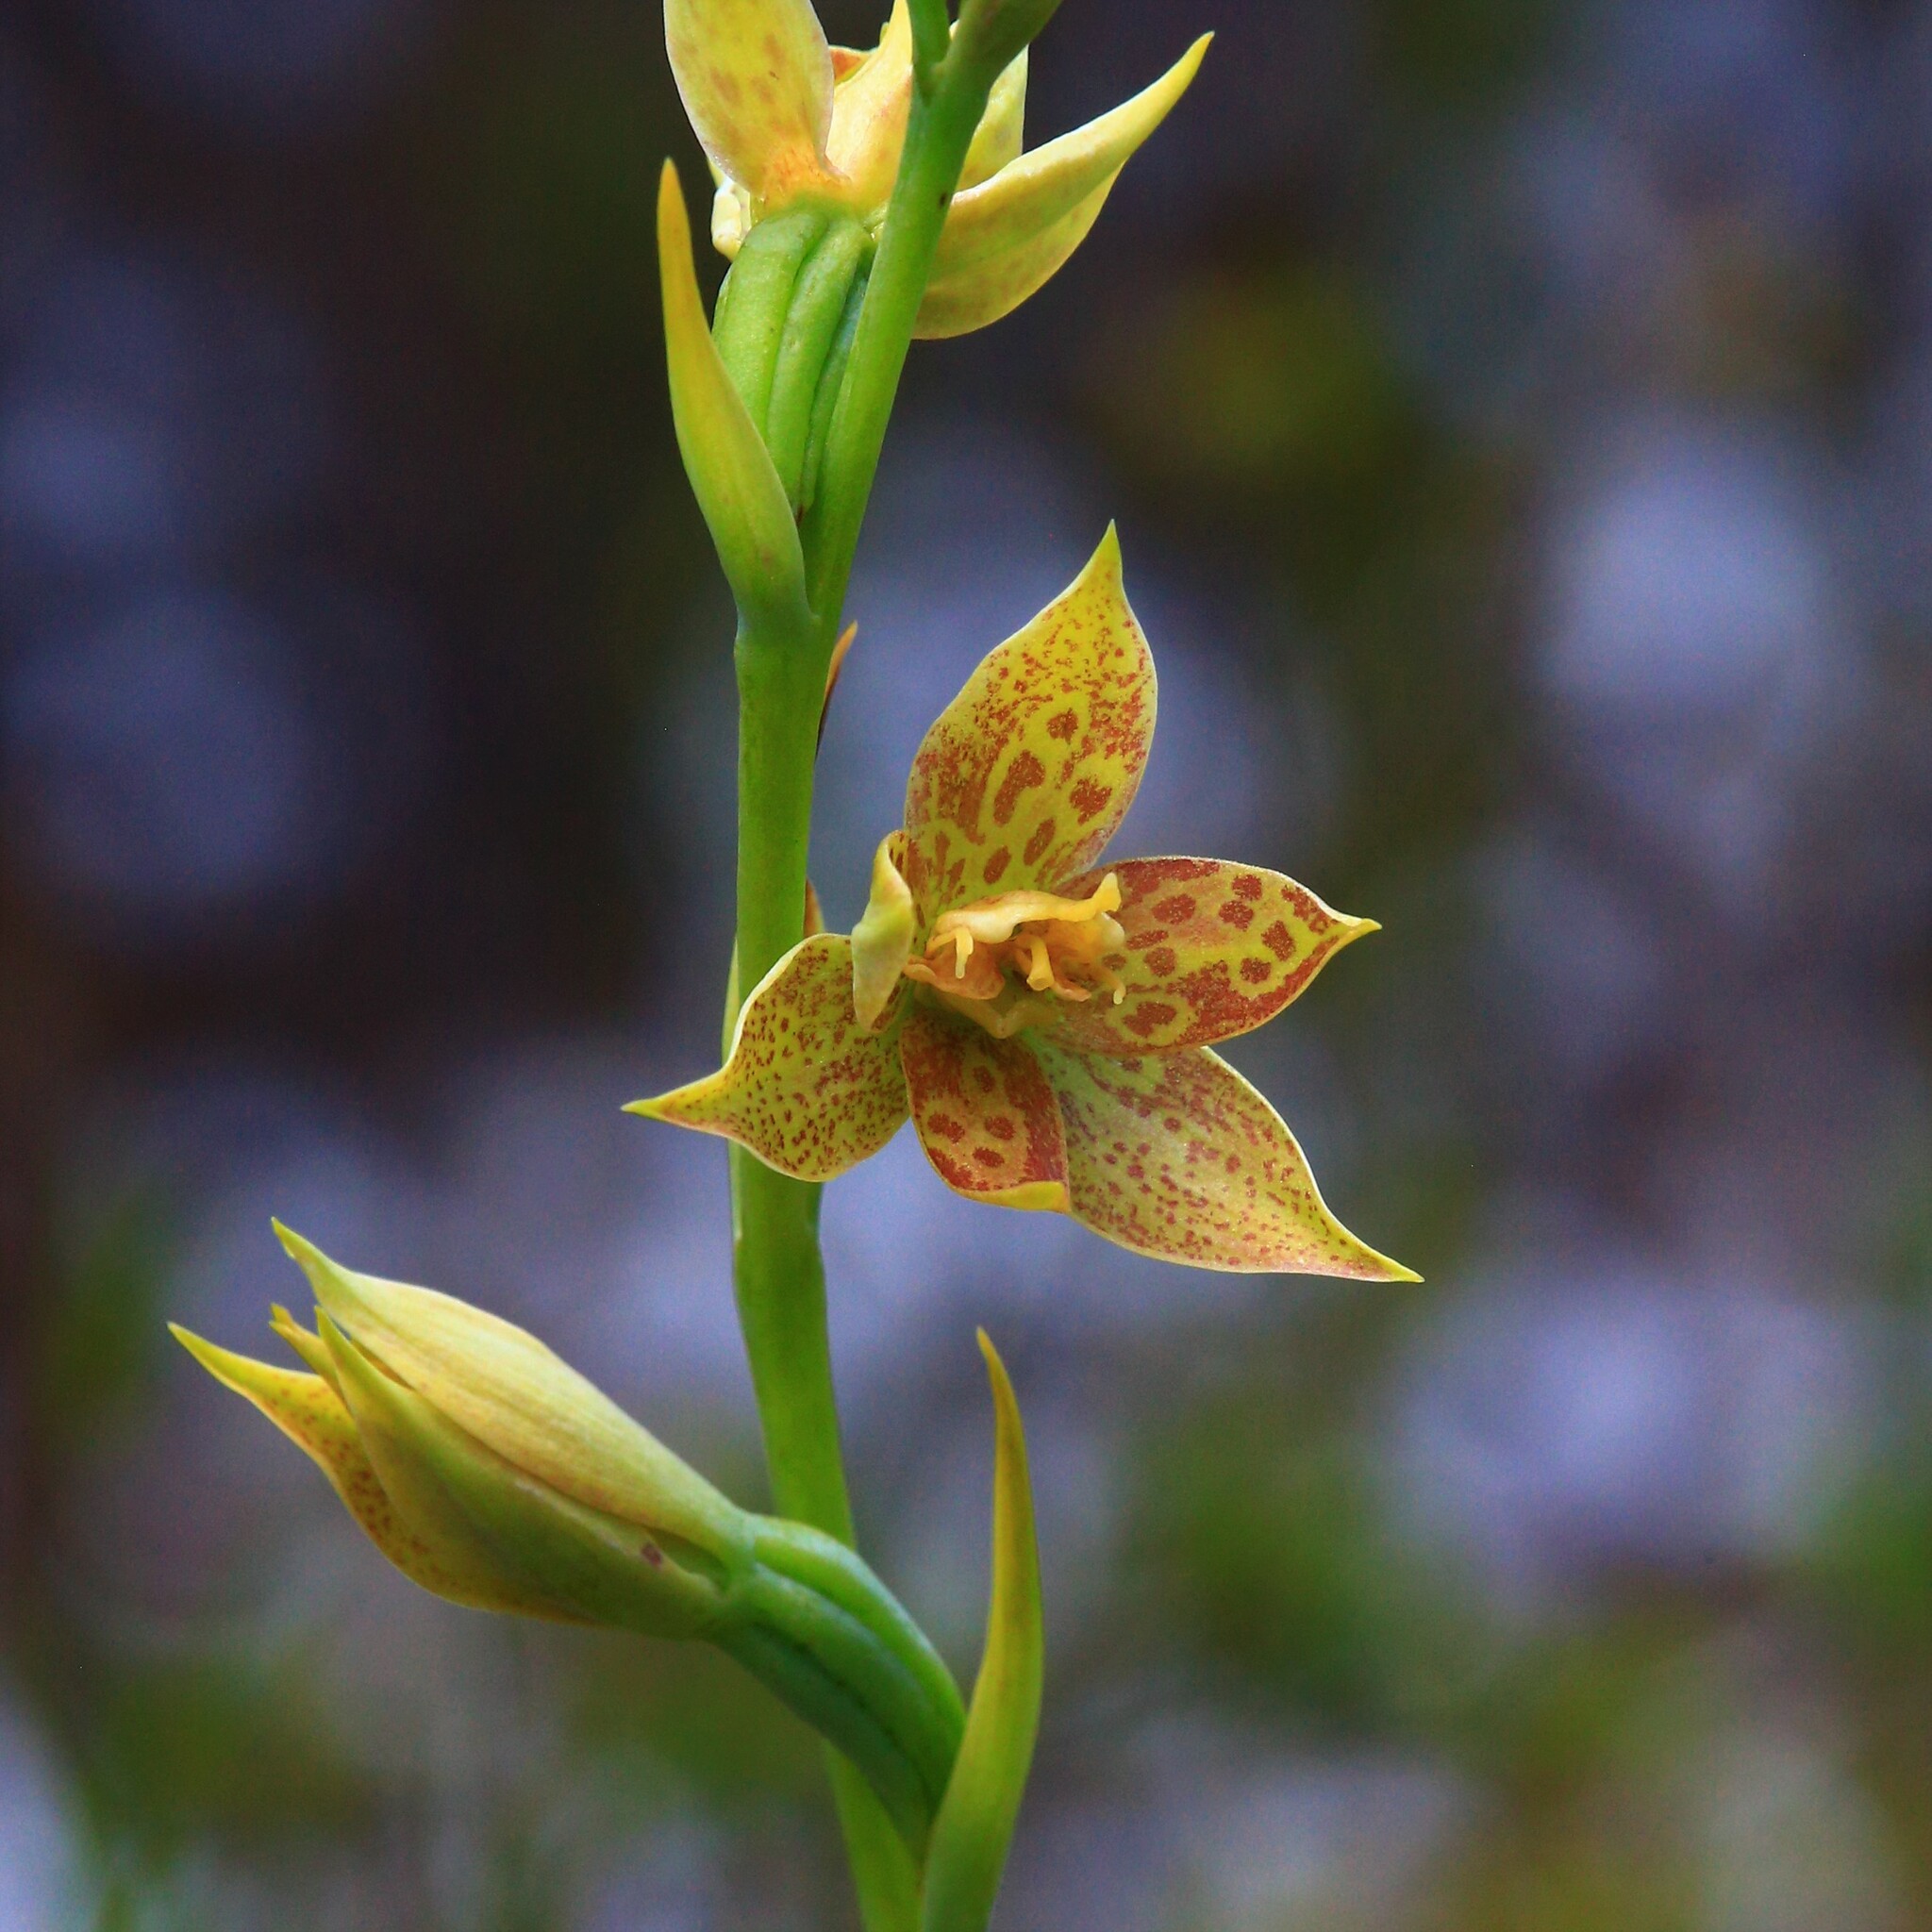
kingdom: Plantae
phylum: Tracheophyta
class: Liliopsida
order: Asparagales
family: Orchidaceae
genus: Thelymitra
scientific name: Thelymitra benthamiana
